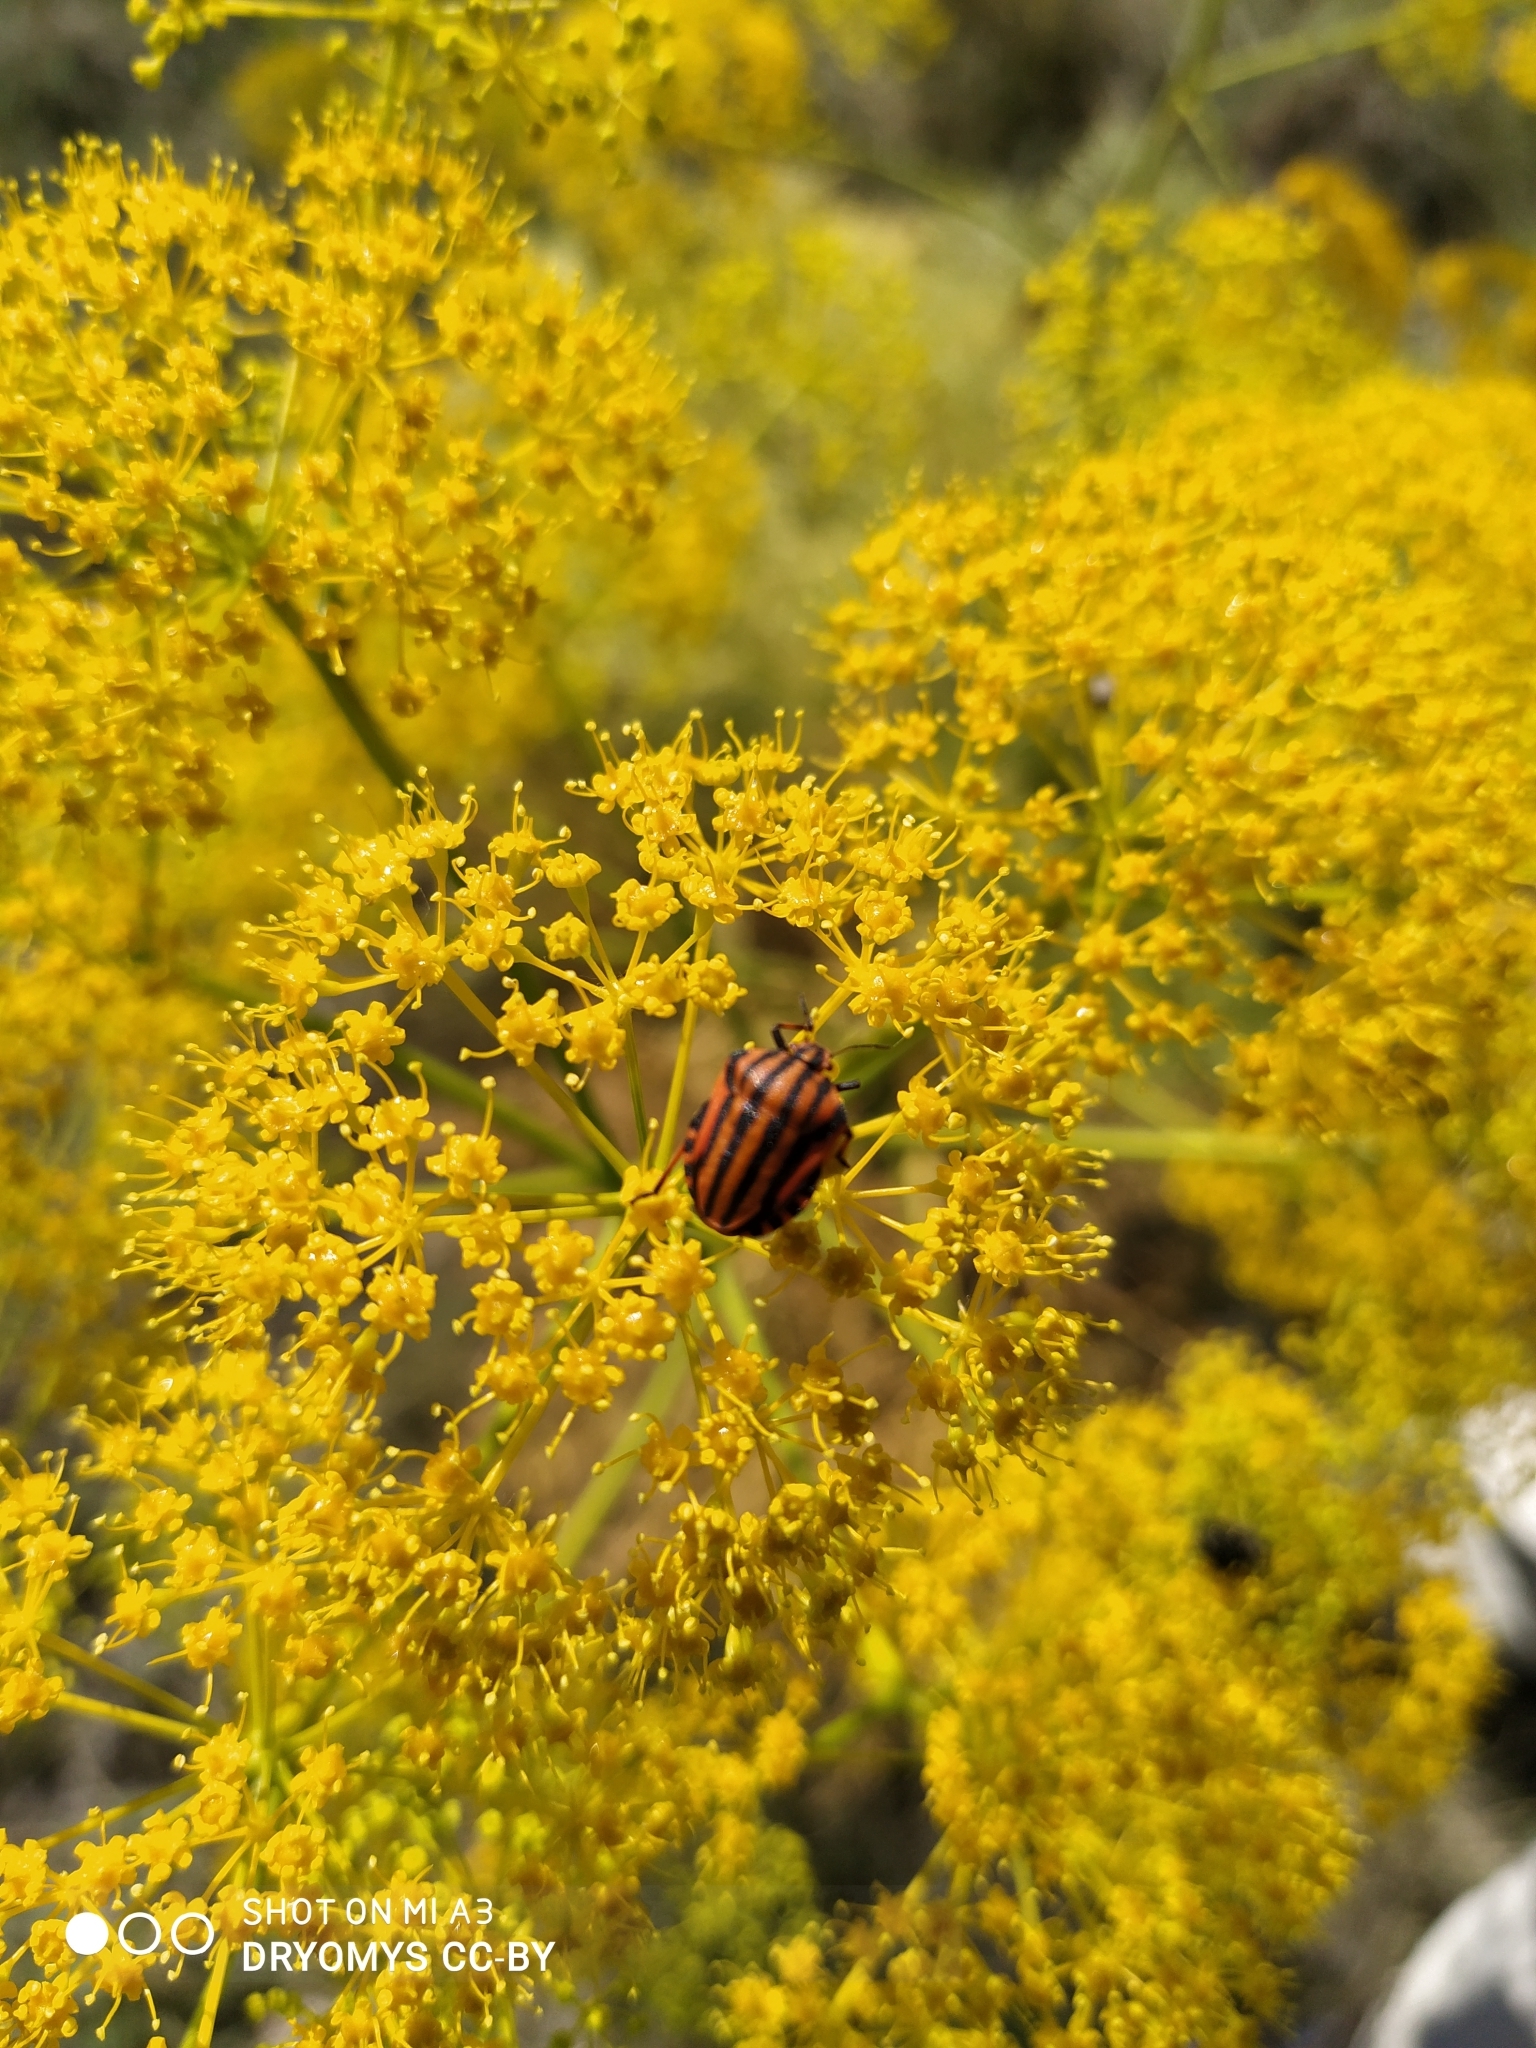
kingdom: Animalia
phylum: Arthropoda
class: Insecta
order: Hemiptera
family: Pentatomidae
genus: Graphosoma
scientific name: Graphosoma italicum
